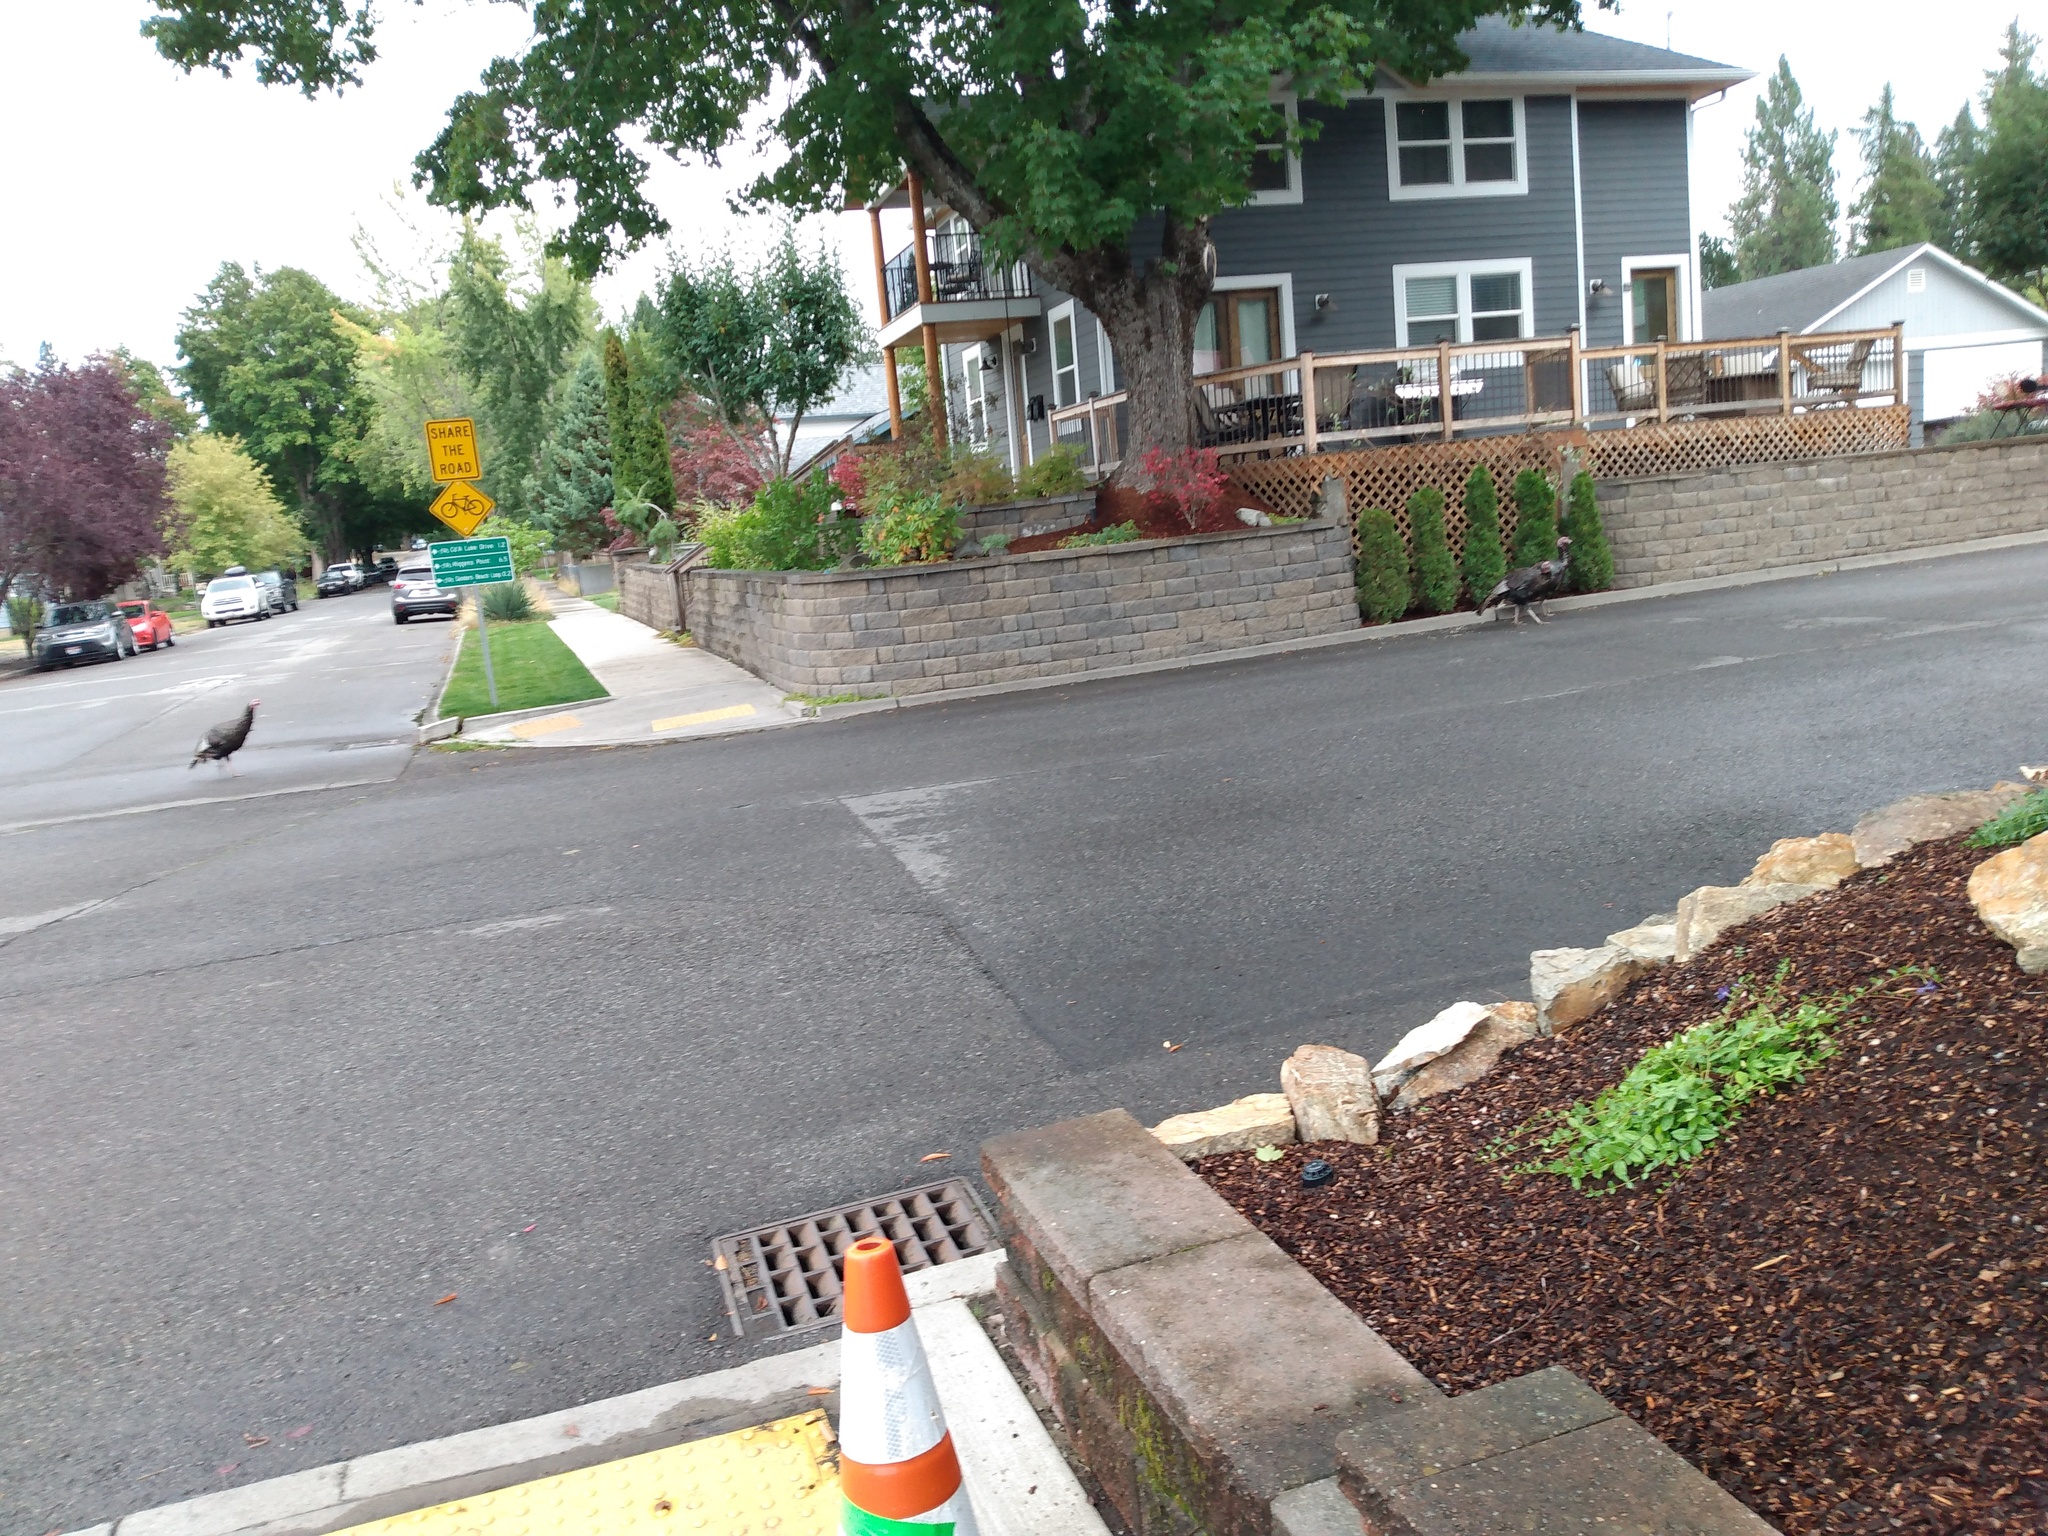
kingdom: Animalia
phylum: Chordata
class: Aves
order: Galliformes
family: Phasianidae
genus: Meleagris
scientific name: Meleagris gallopavo
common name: Wild turkey
